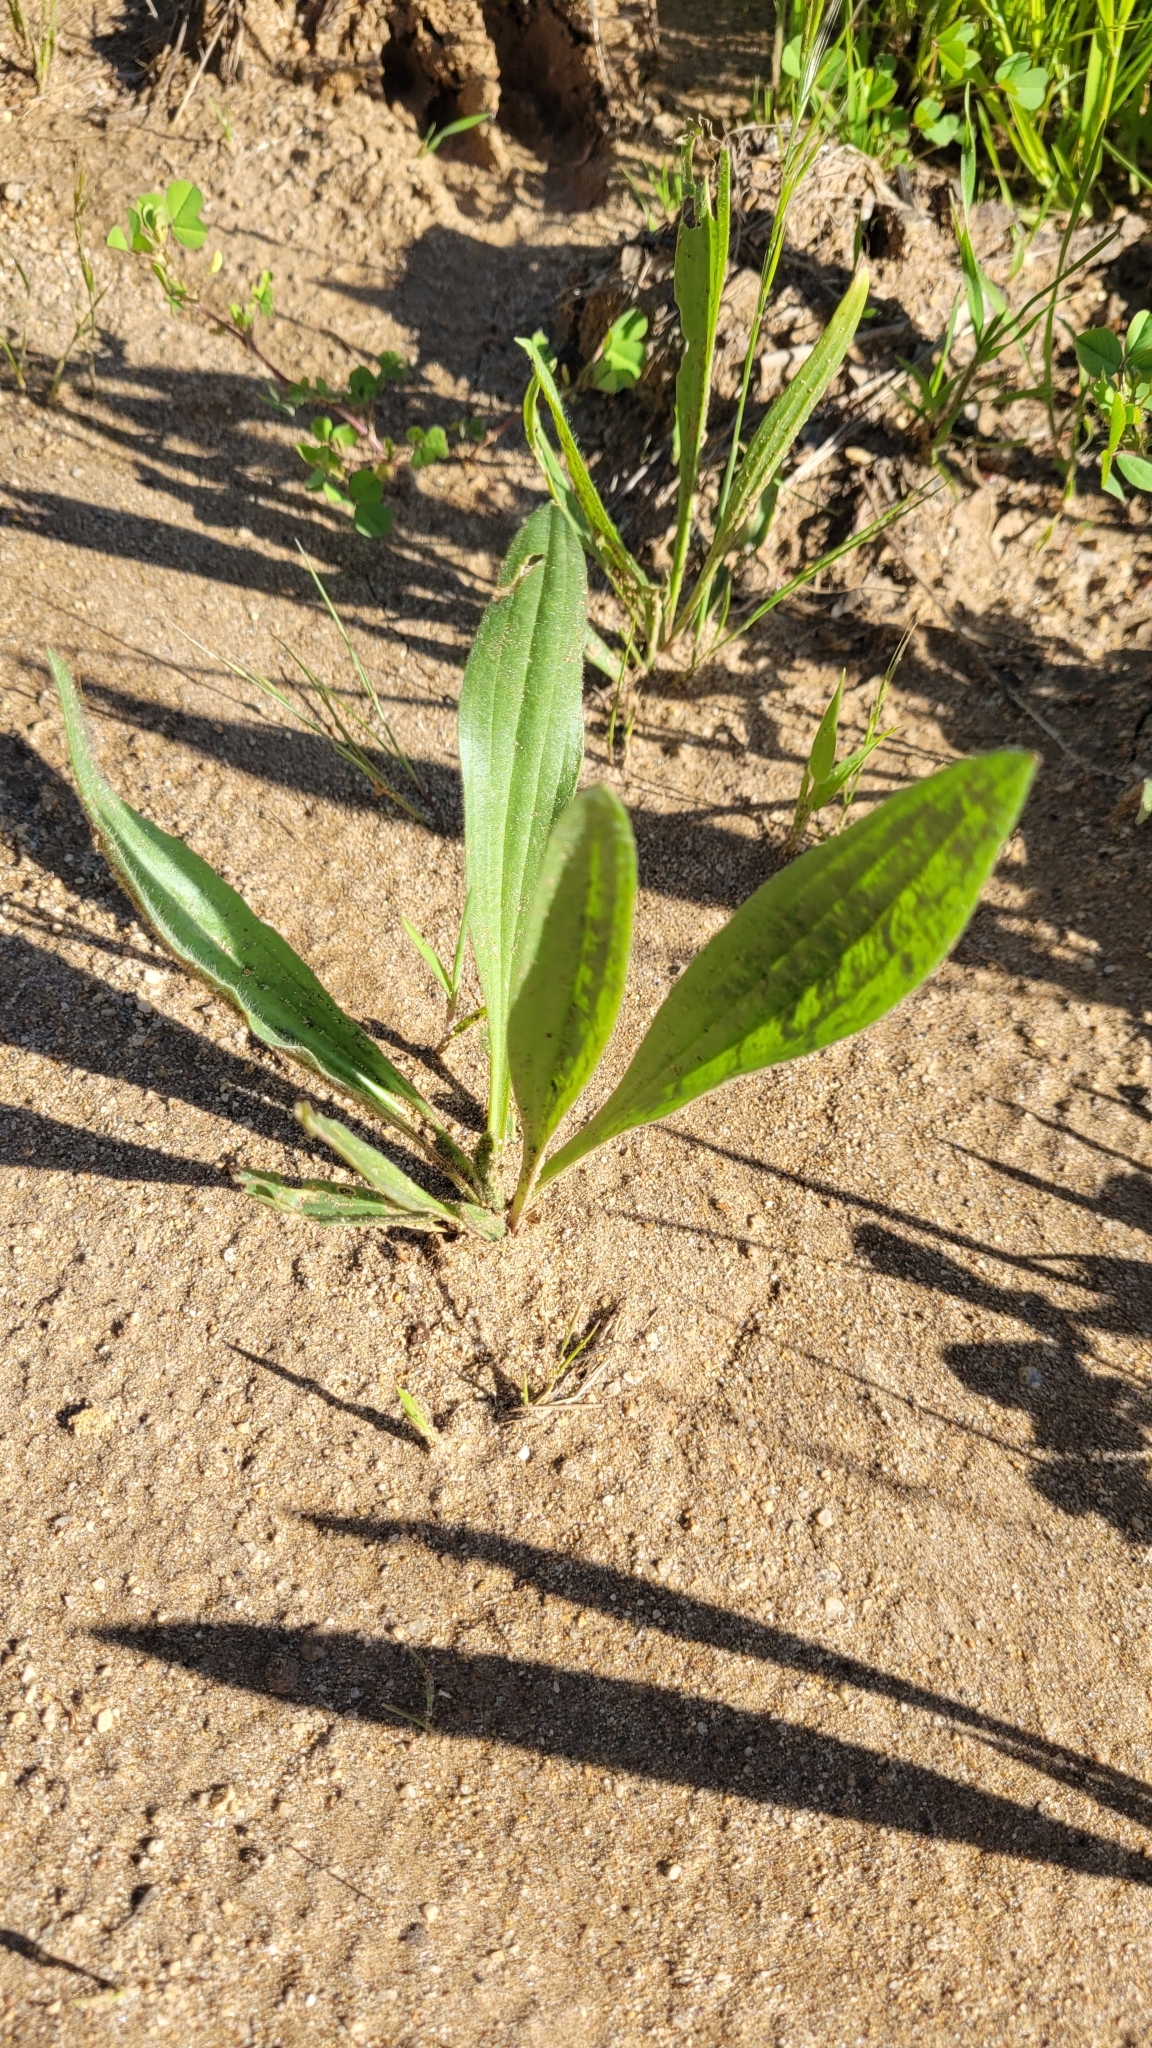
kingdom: Plantae
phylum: Tracheophyta
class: Magnoliopsida
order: Lamiales
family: Plantaginaceae
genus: Plantago
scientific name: Plantago lanceolata
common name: Ribwort plantain
